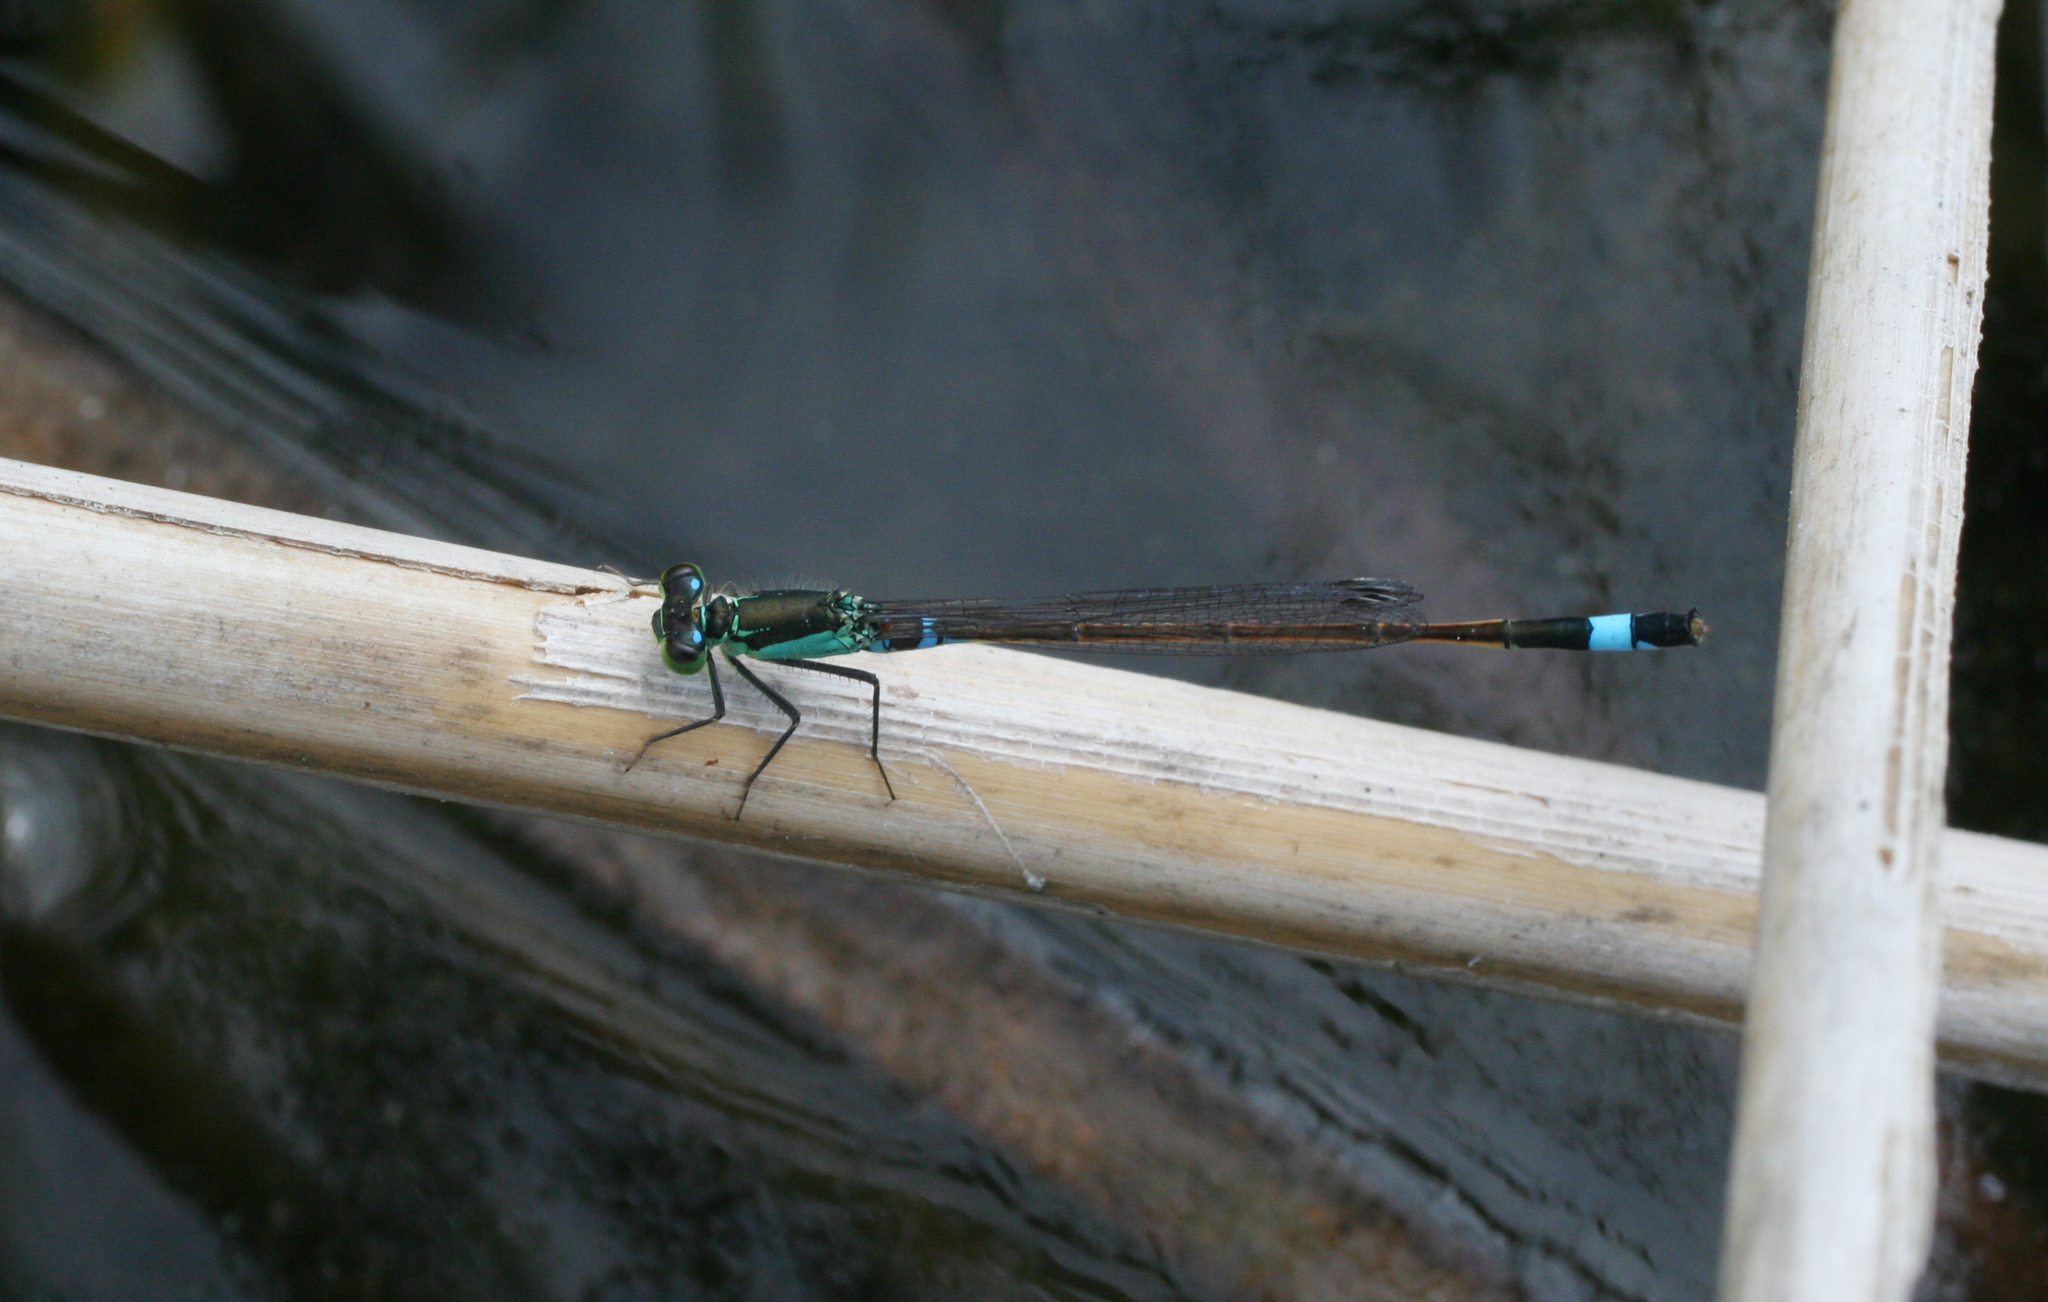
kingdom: Animalia
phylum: Arthropoda
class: Insecta
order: Odonata
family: Coenagrionidae
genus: Ischnura
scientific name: Ischnura aralensis
